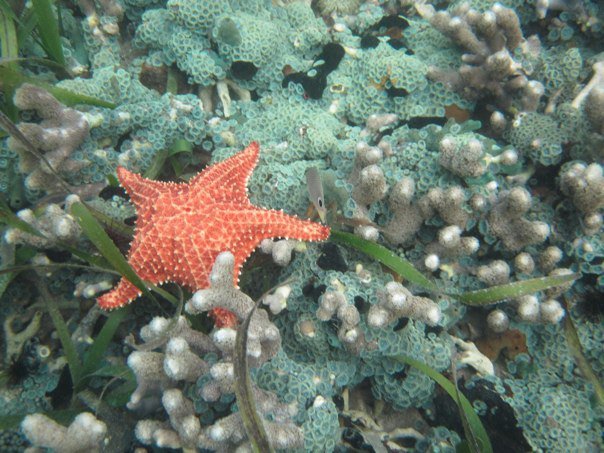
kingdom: Animalia
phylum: Echinodermata
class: Asteroidea
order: Valvatida
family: Oreasteridae
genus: Oreaster
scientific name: Oreaster reticulatus
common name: Cushion sea star
